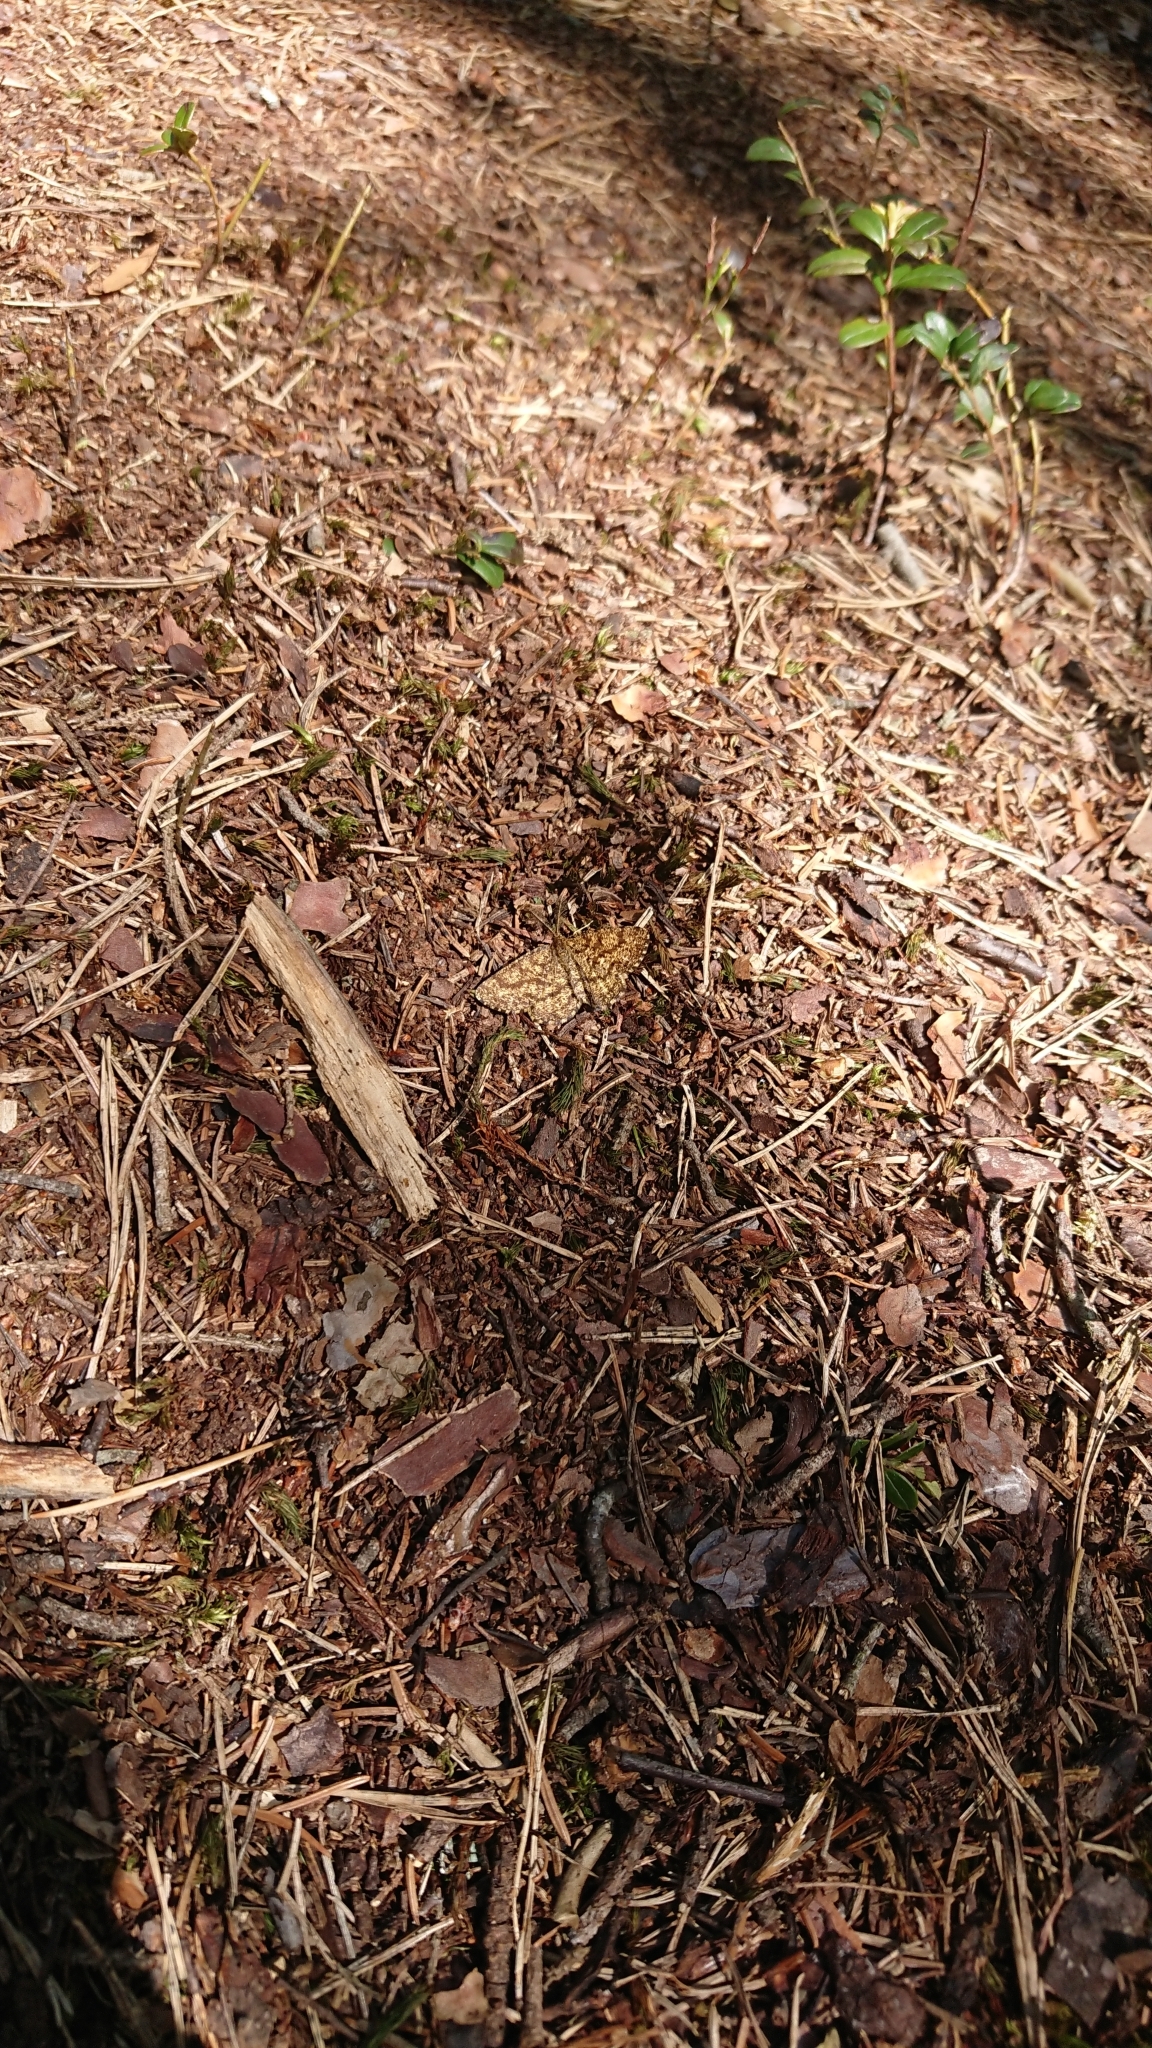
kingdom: Animalia
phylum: Arthropoda
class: Insecta
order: Lepidoptera
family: Geometridae
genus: Ematurga
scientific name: Ematurga atomaria
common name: Common heath
